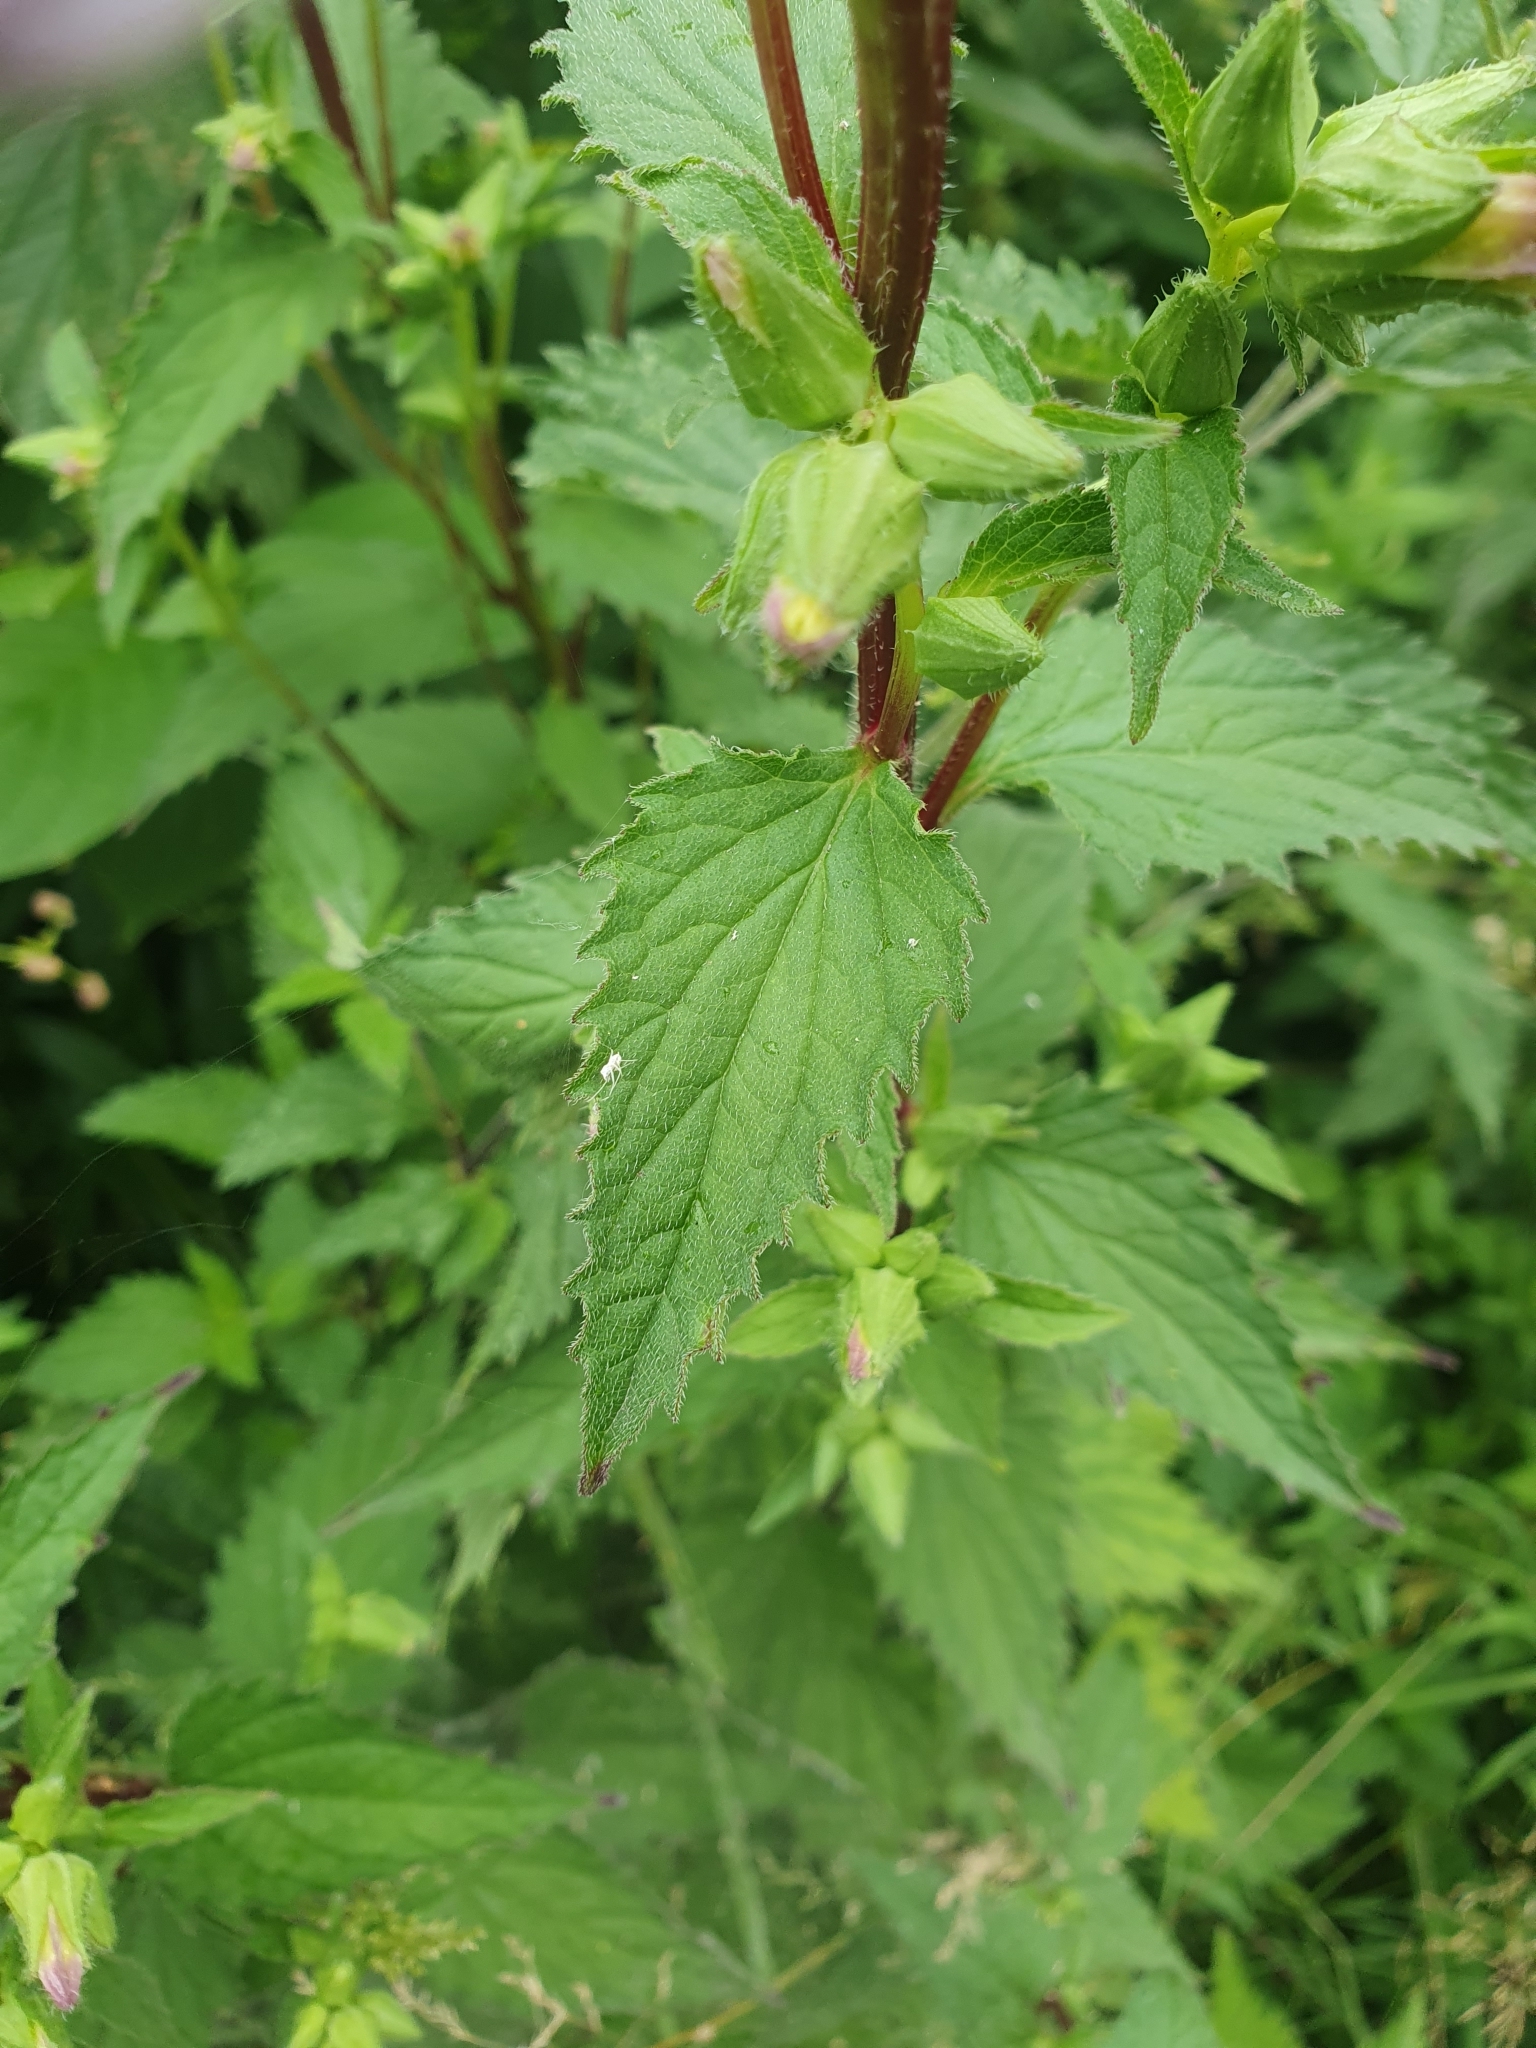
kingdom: Plantae
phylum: Tracheophyta
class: Magnoliopsida
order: Asterales
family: Campanulaceae
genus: Campanula
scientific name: Campanula trachelium
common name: Nettle-leaved bellflower
